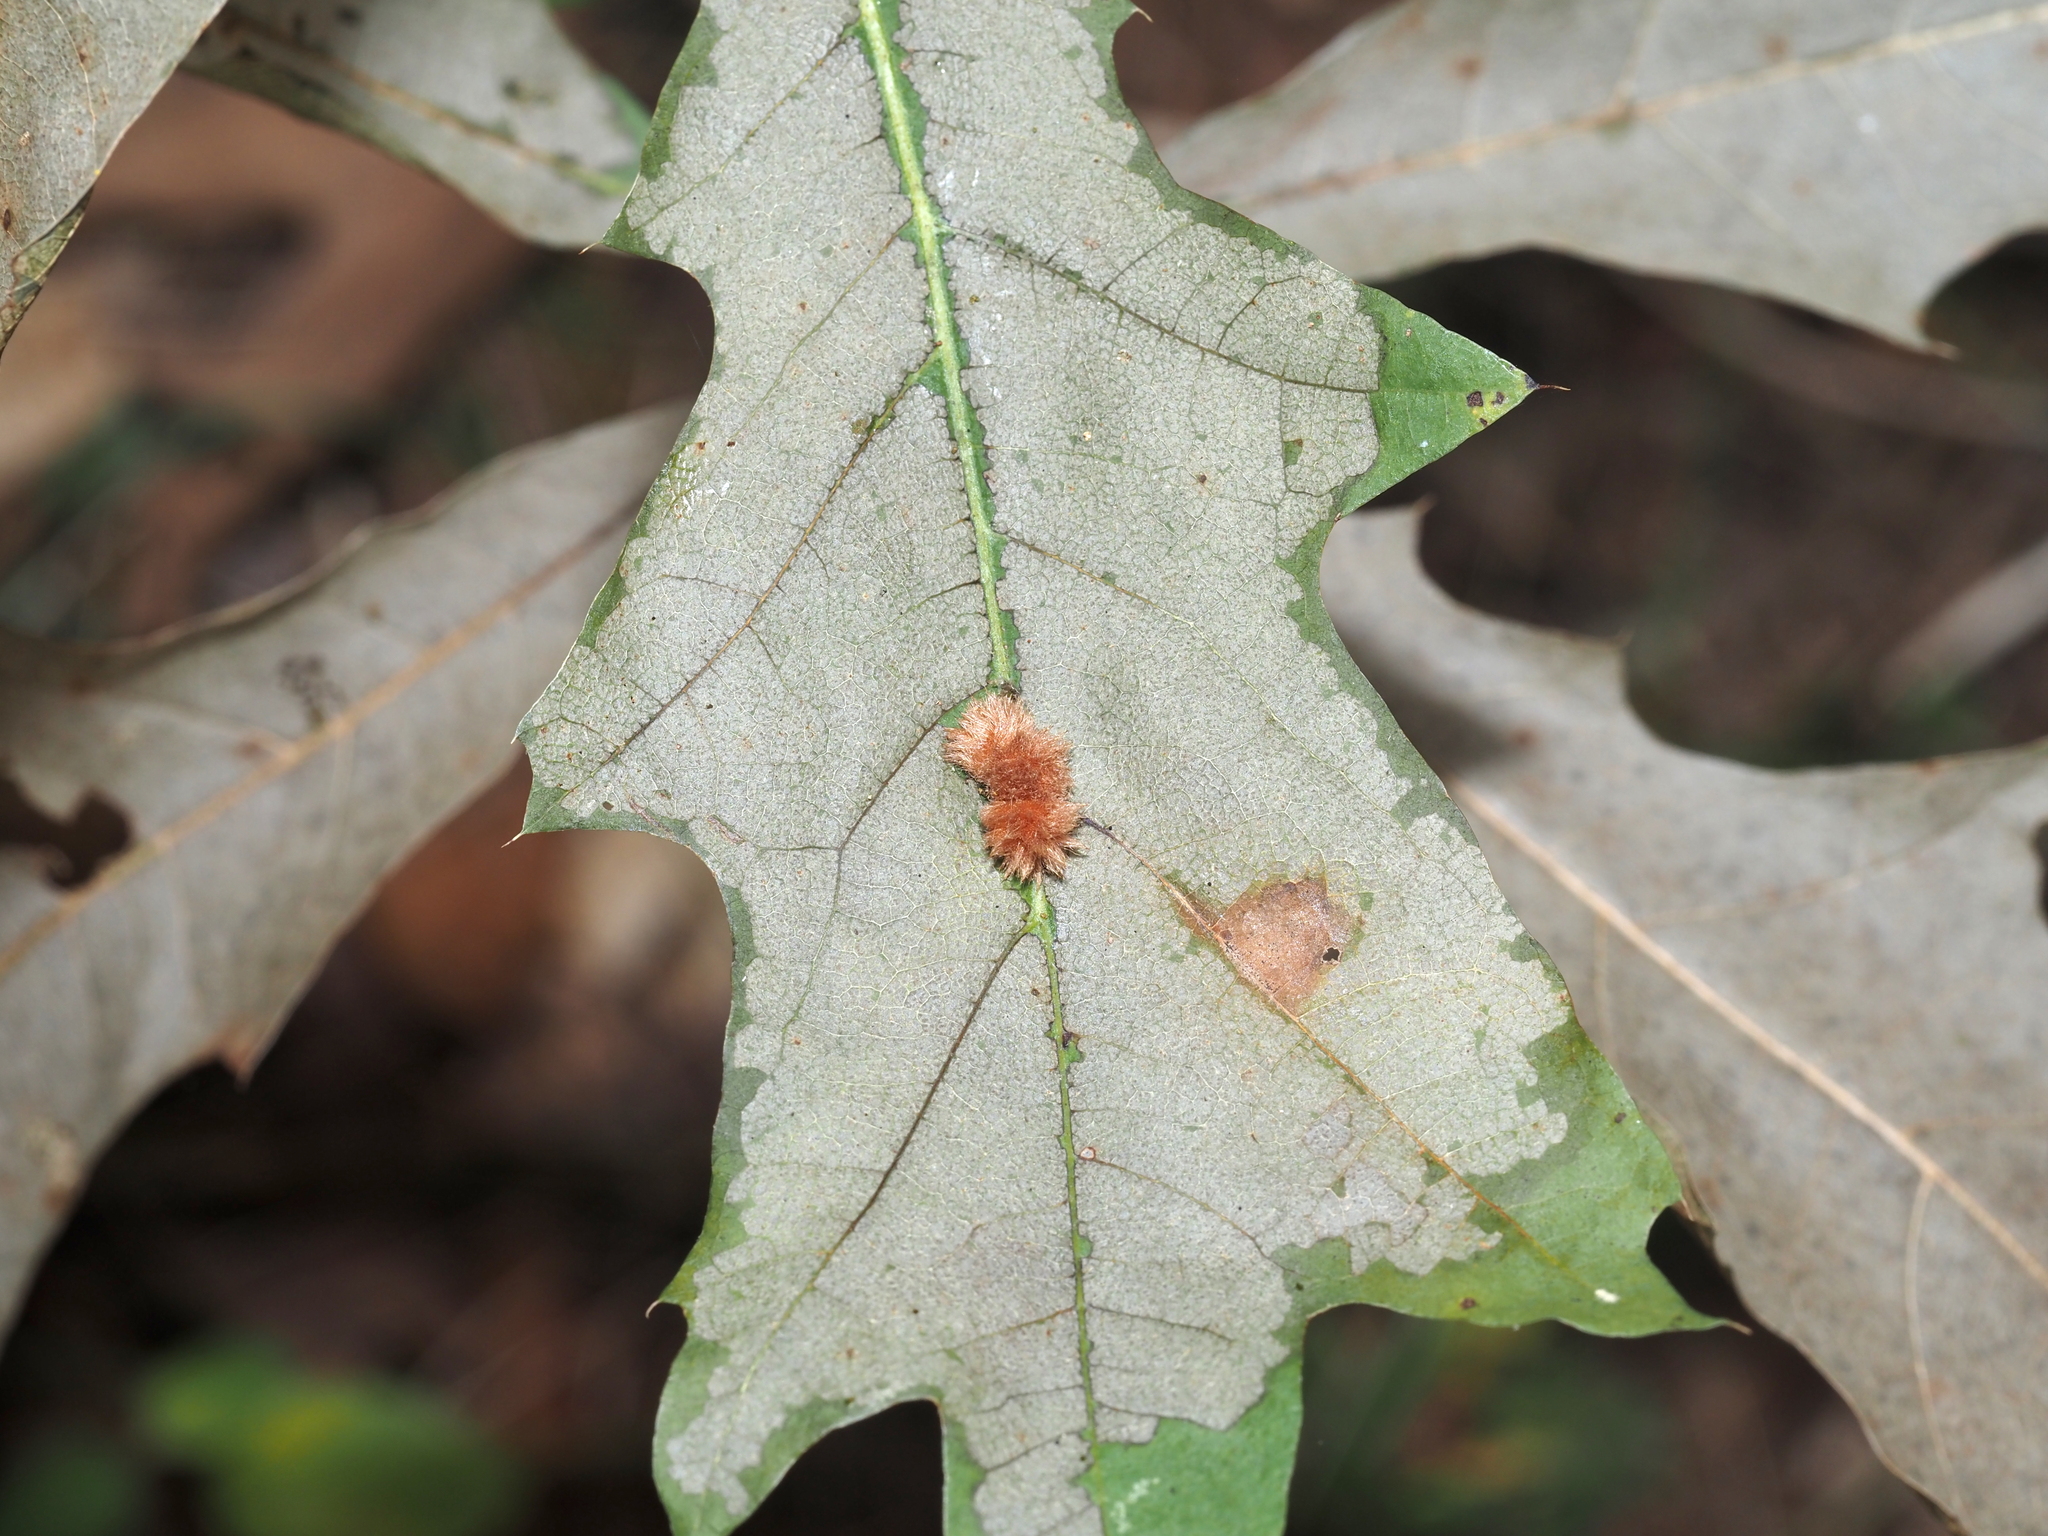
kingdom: Animalia
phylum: Arthropoda
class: Insecta
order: Hymenoptera
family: Cynipidae
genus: Callirhytis
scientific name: Callirhytis
